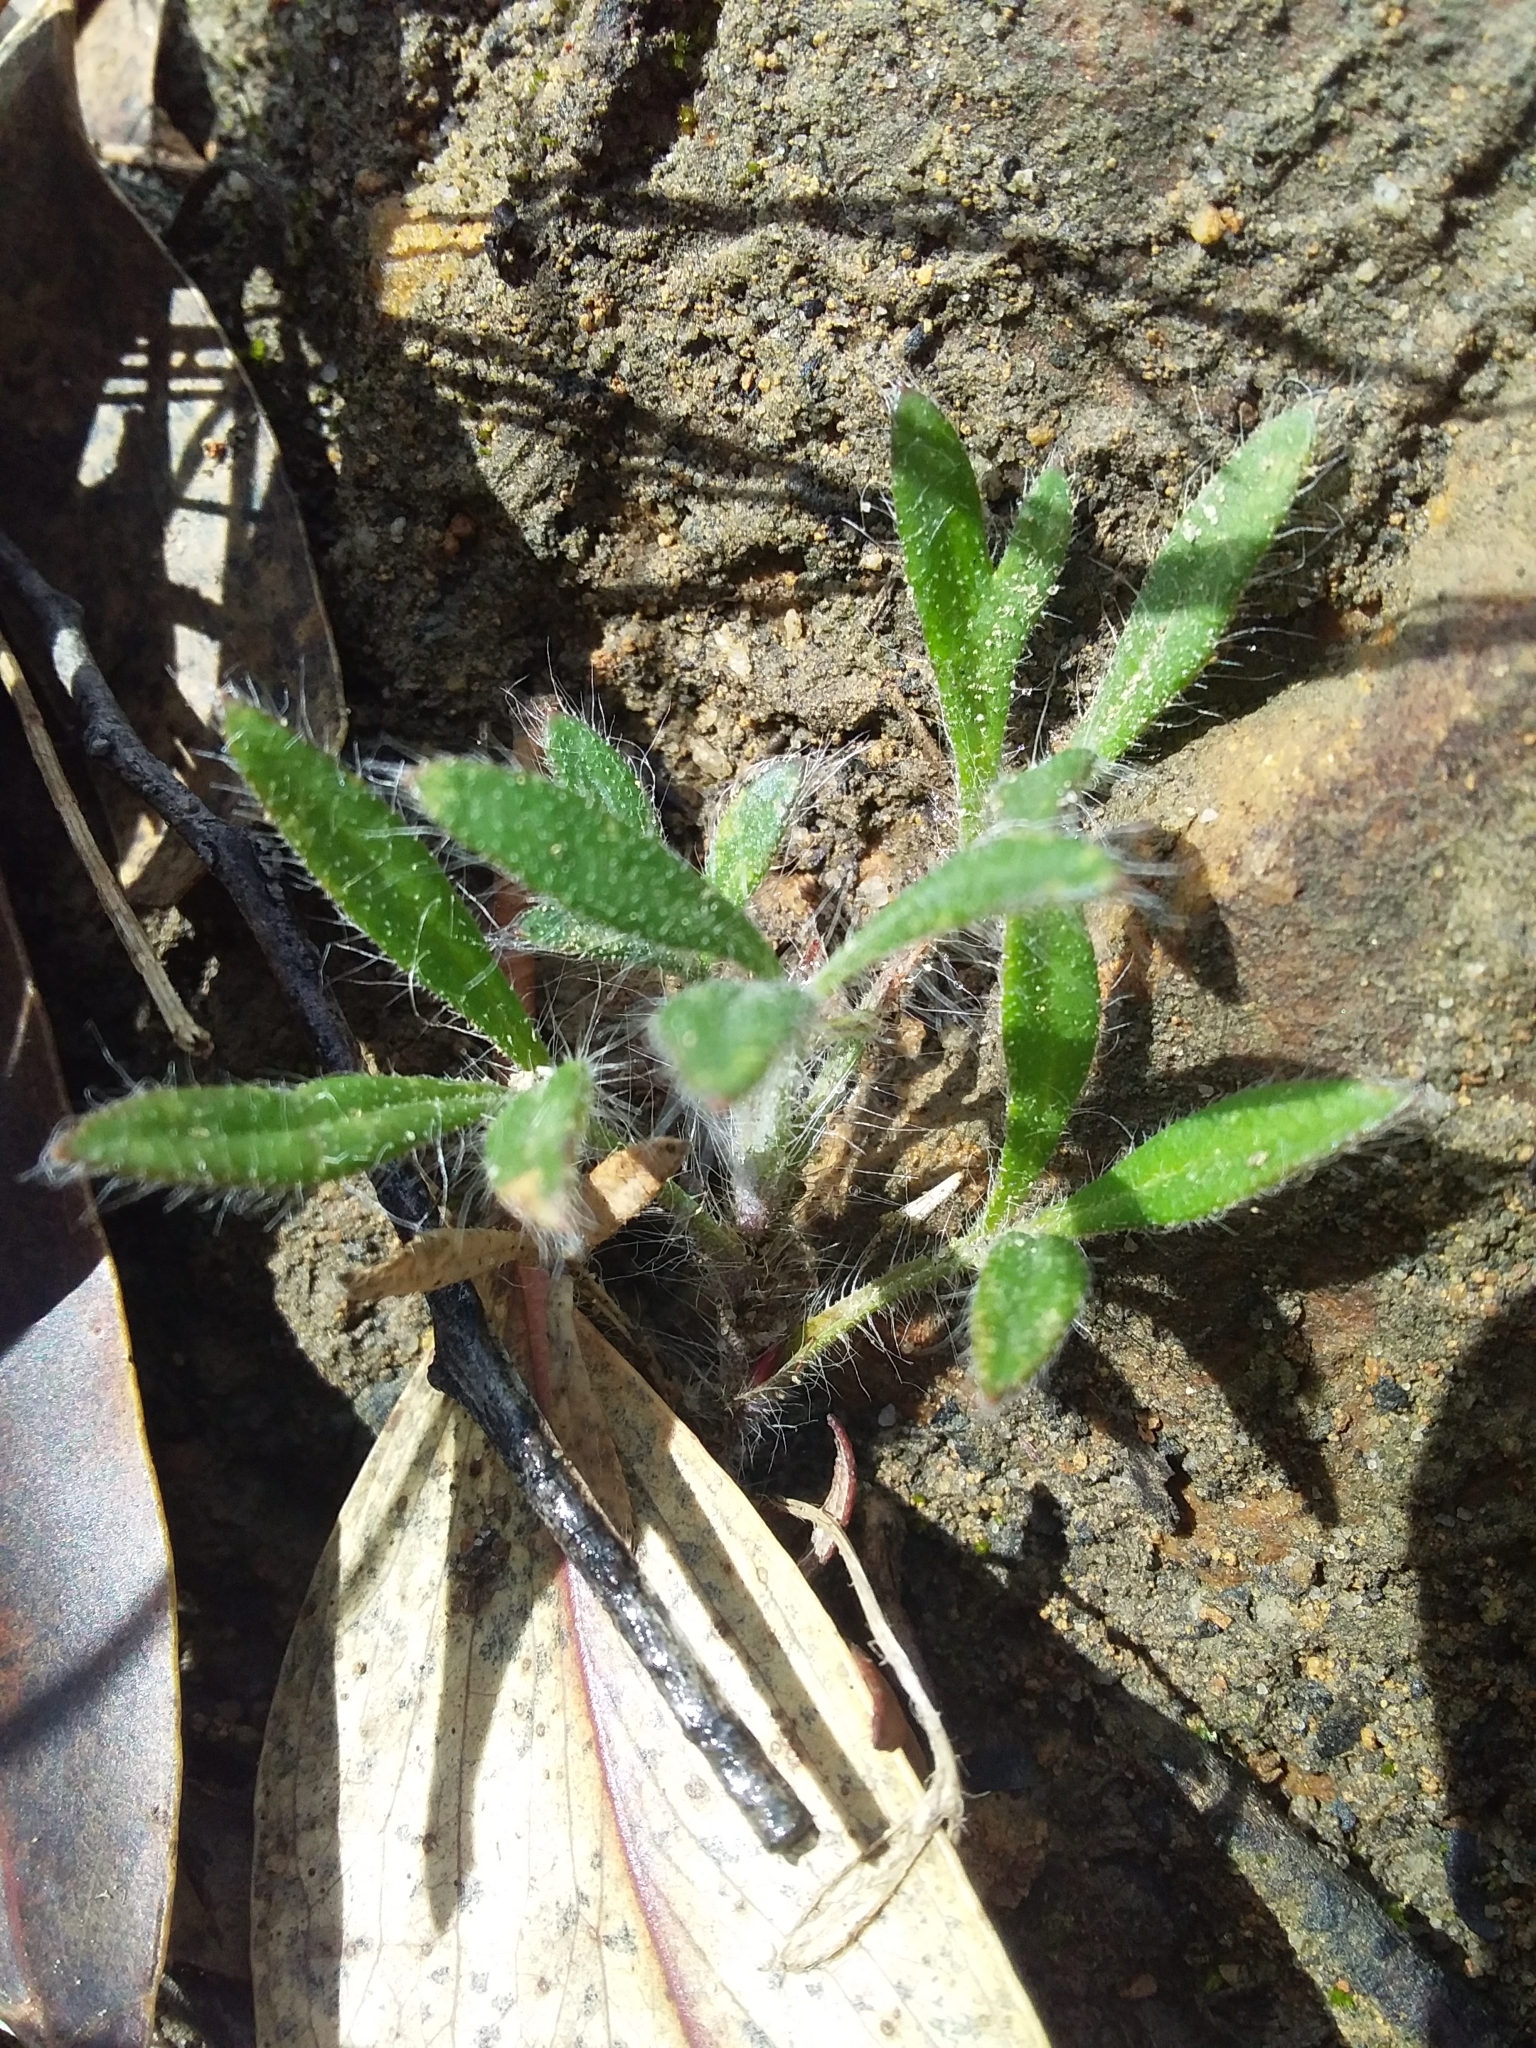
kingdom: Plantae
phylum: Tracheophyta
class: Magnoliopsida
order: Apiales
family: Apiaceae
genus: Xanthosia
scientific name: Xanthosia huegelii
